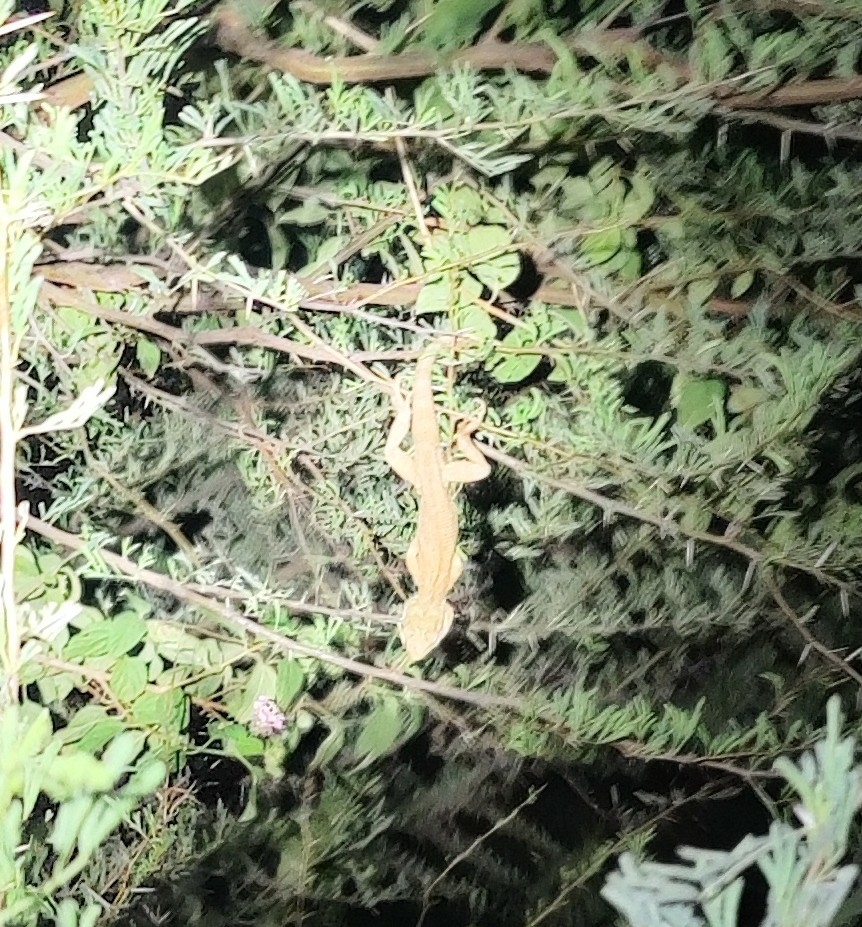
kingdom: Animalia
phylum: Chordata
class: Squamata
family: Agamidae
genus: Calotes
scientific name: Calotes versicolor
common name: Oriental garden lizard
